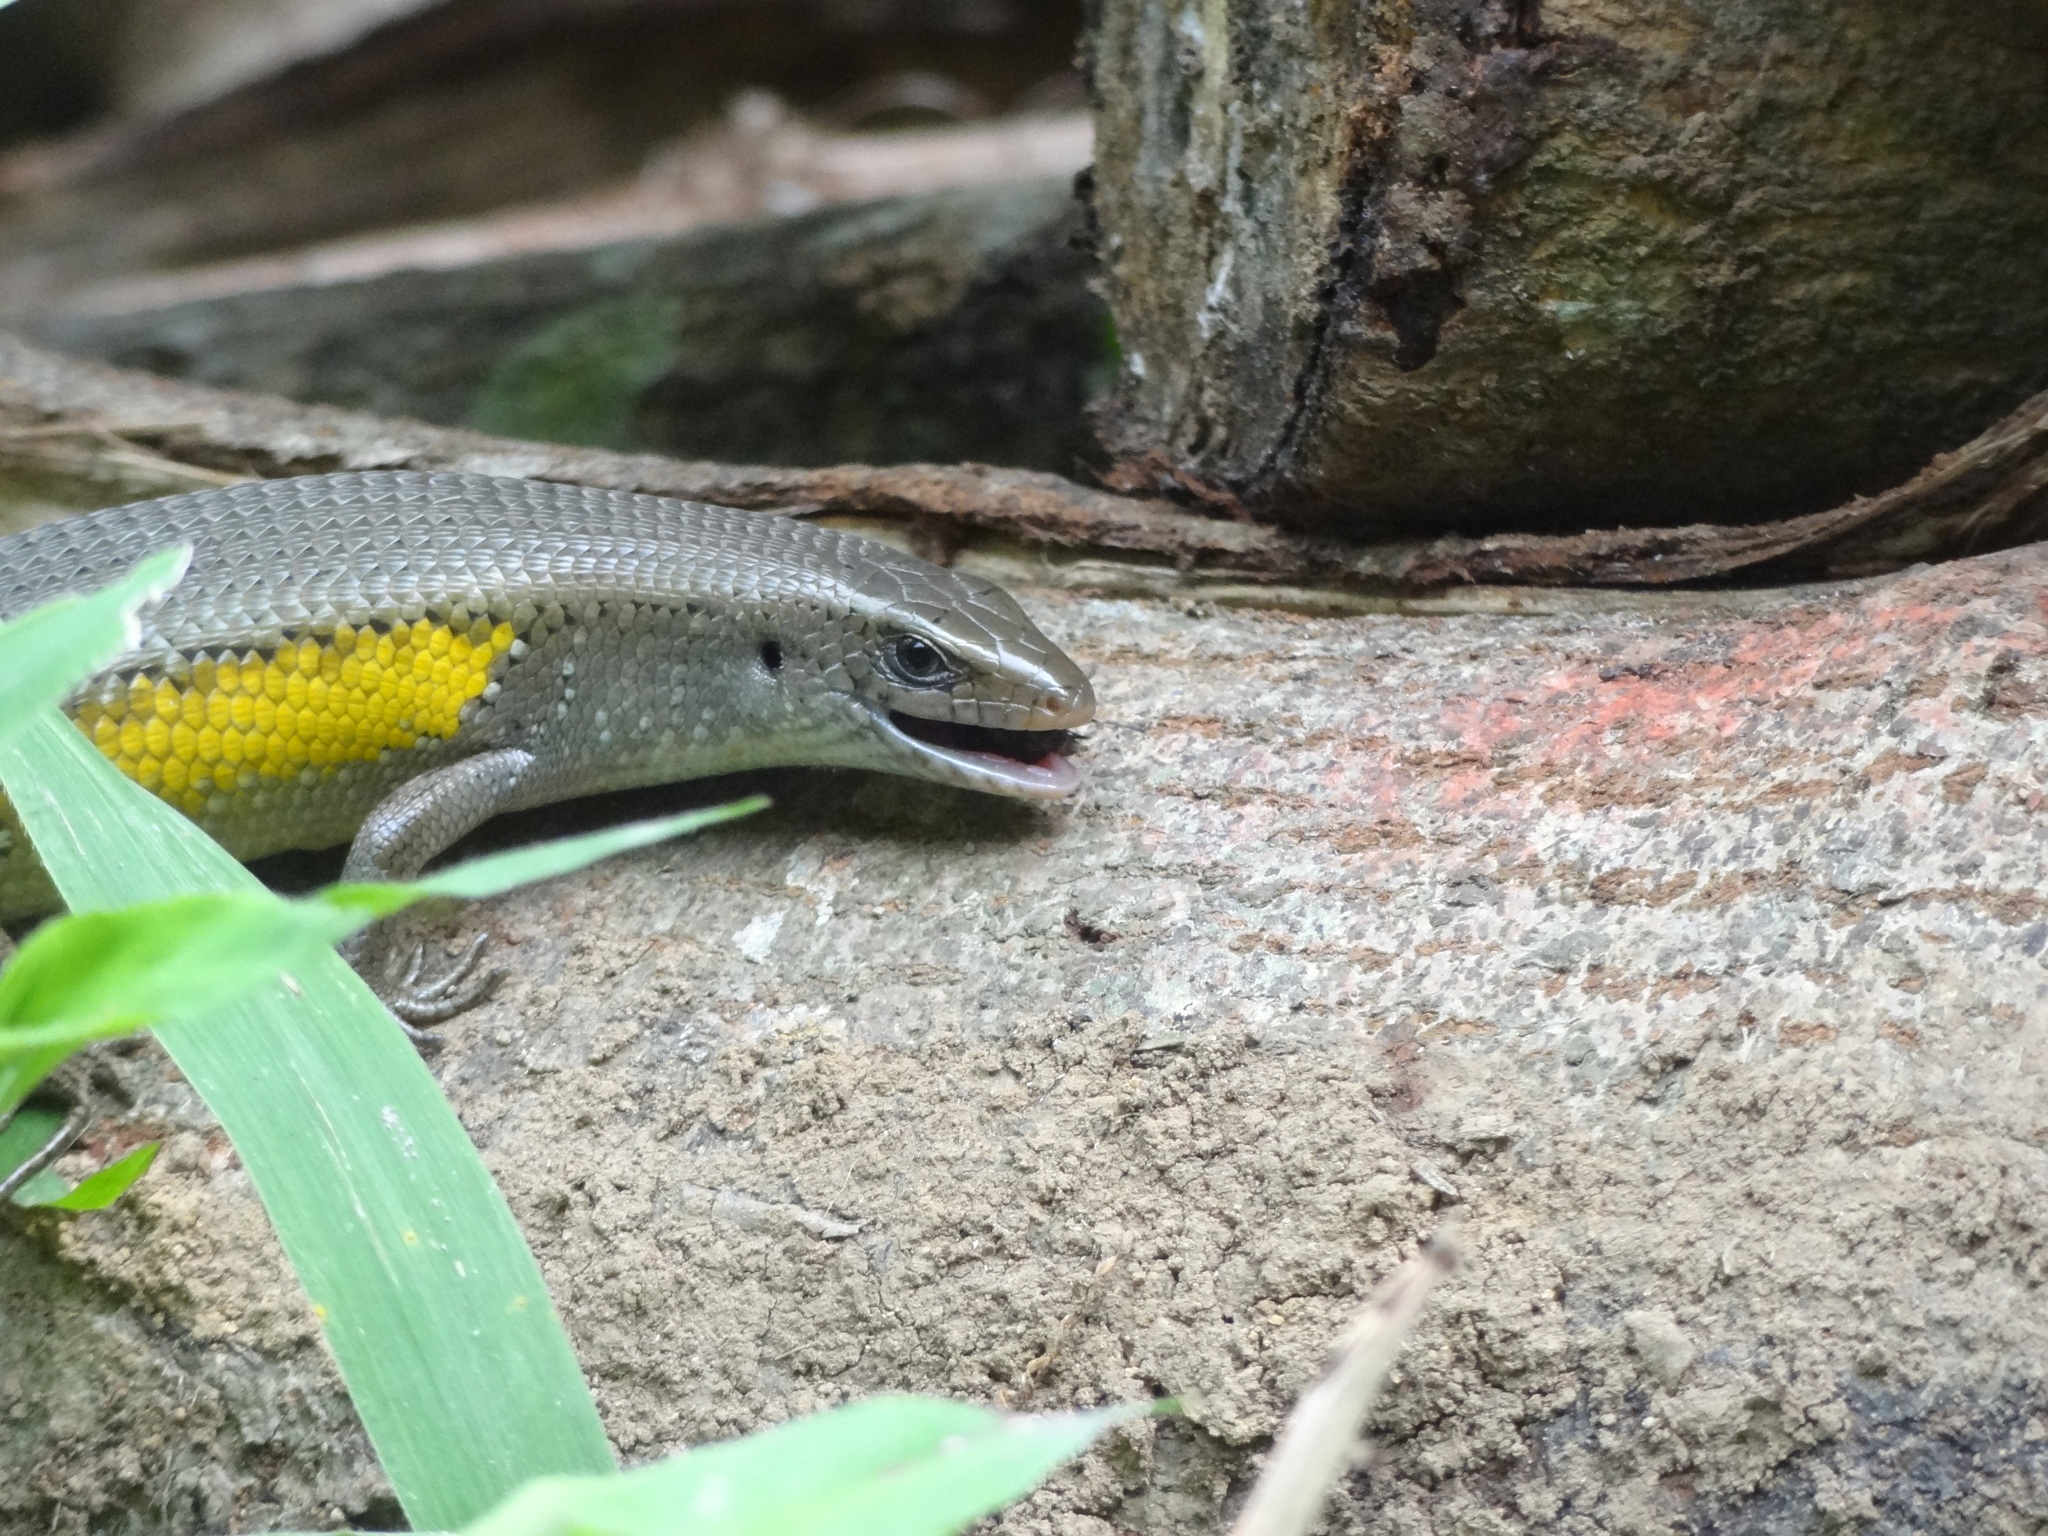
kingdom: Animalia
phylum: Chordata
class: Squamata
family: Scincidae
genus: Eutropis
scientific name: Eutropis multifasciata
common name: Common mabuya
